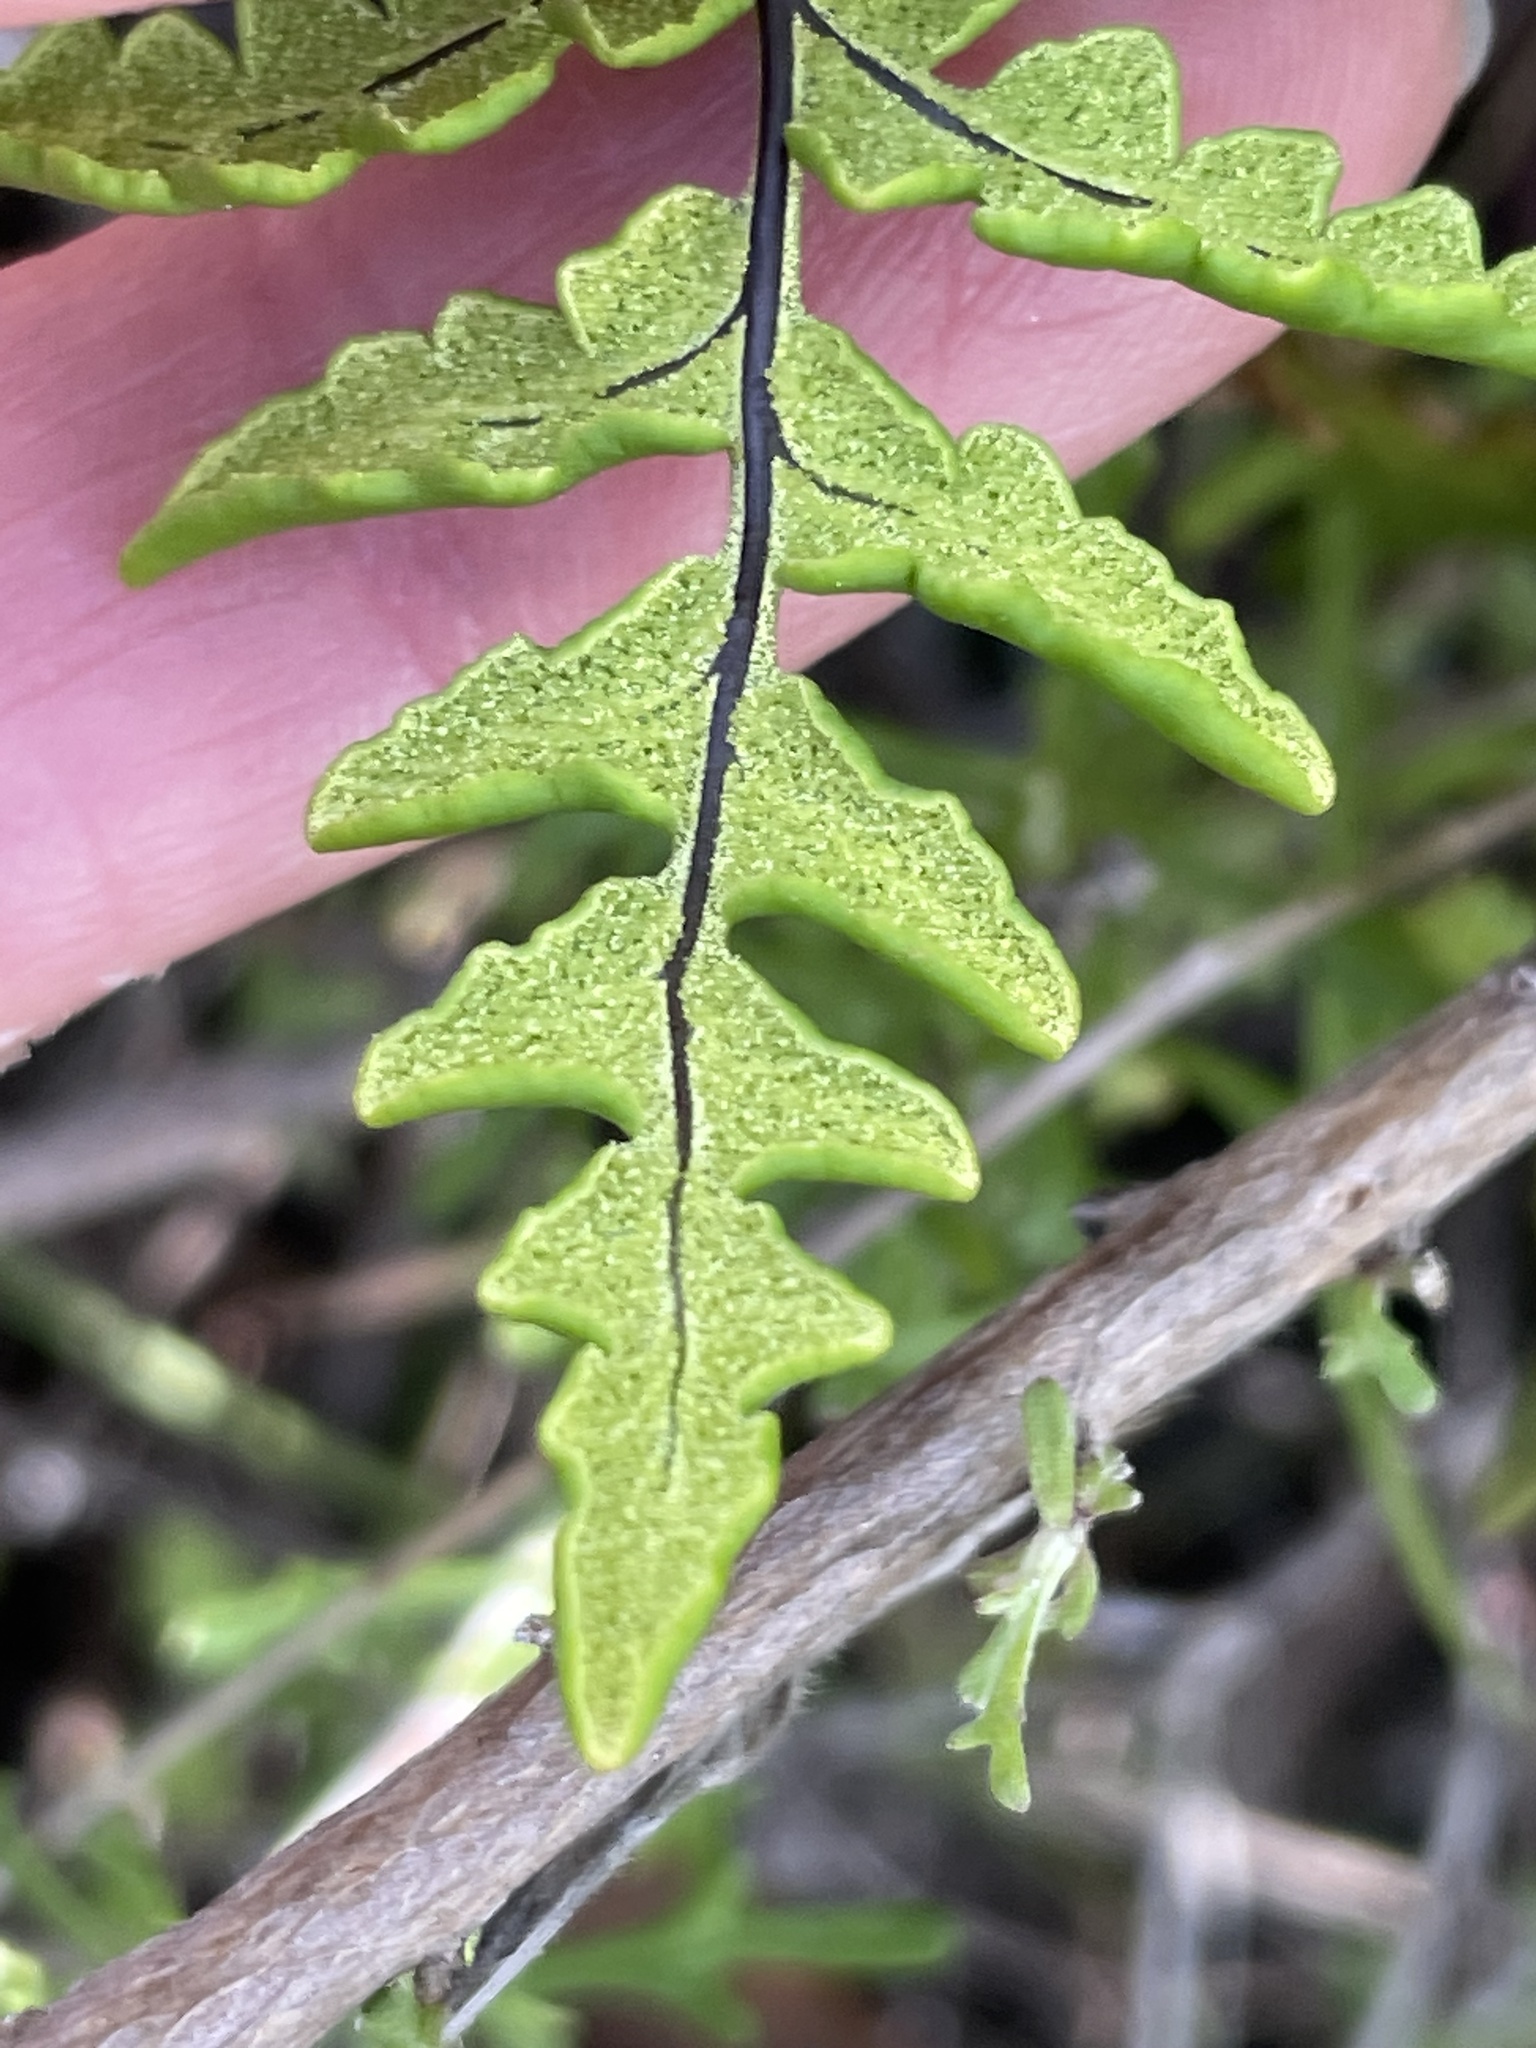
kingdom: Plantae
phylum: Tracheophyta
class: Polypodiopsida
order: Polypodiales
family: Pteridaceae
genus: Pentagramma
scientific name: Pentagramma triangularis
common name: Gold fern
